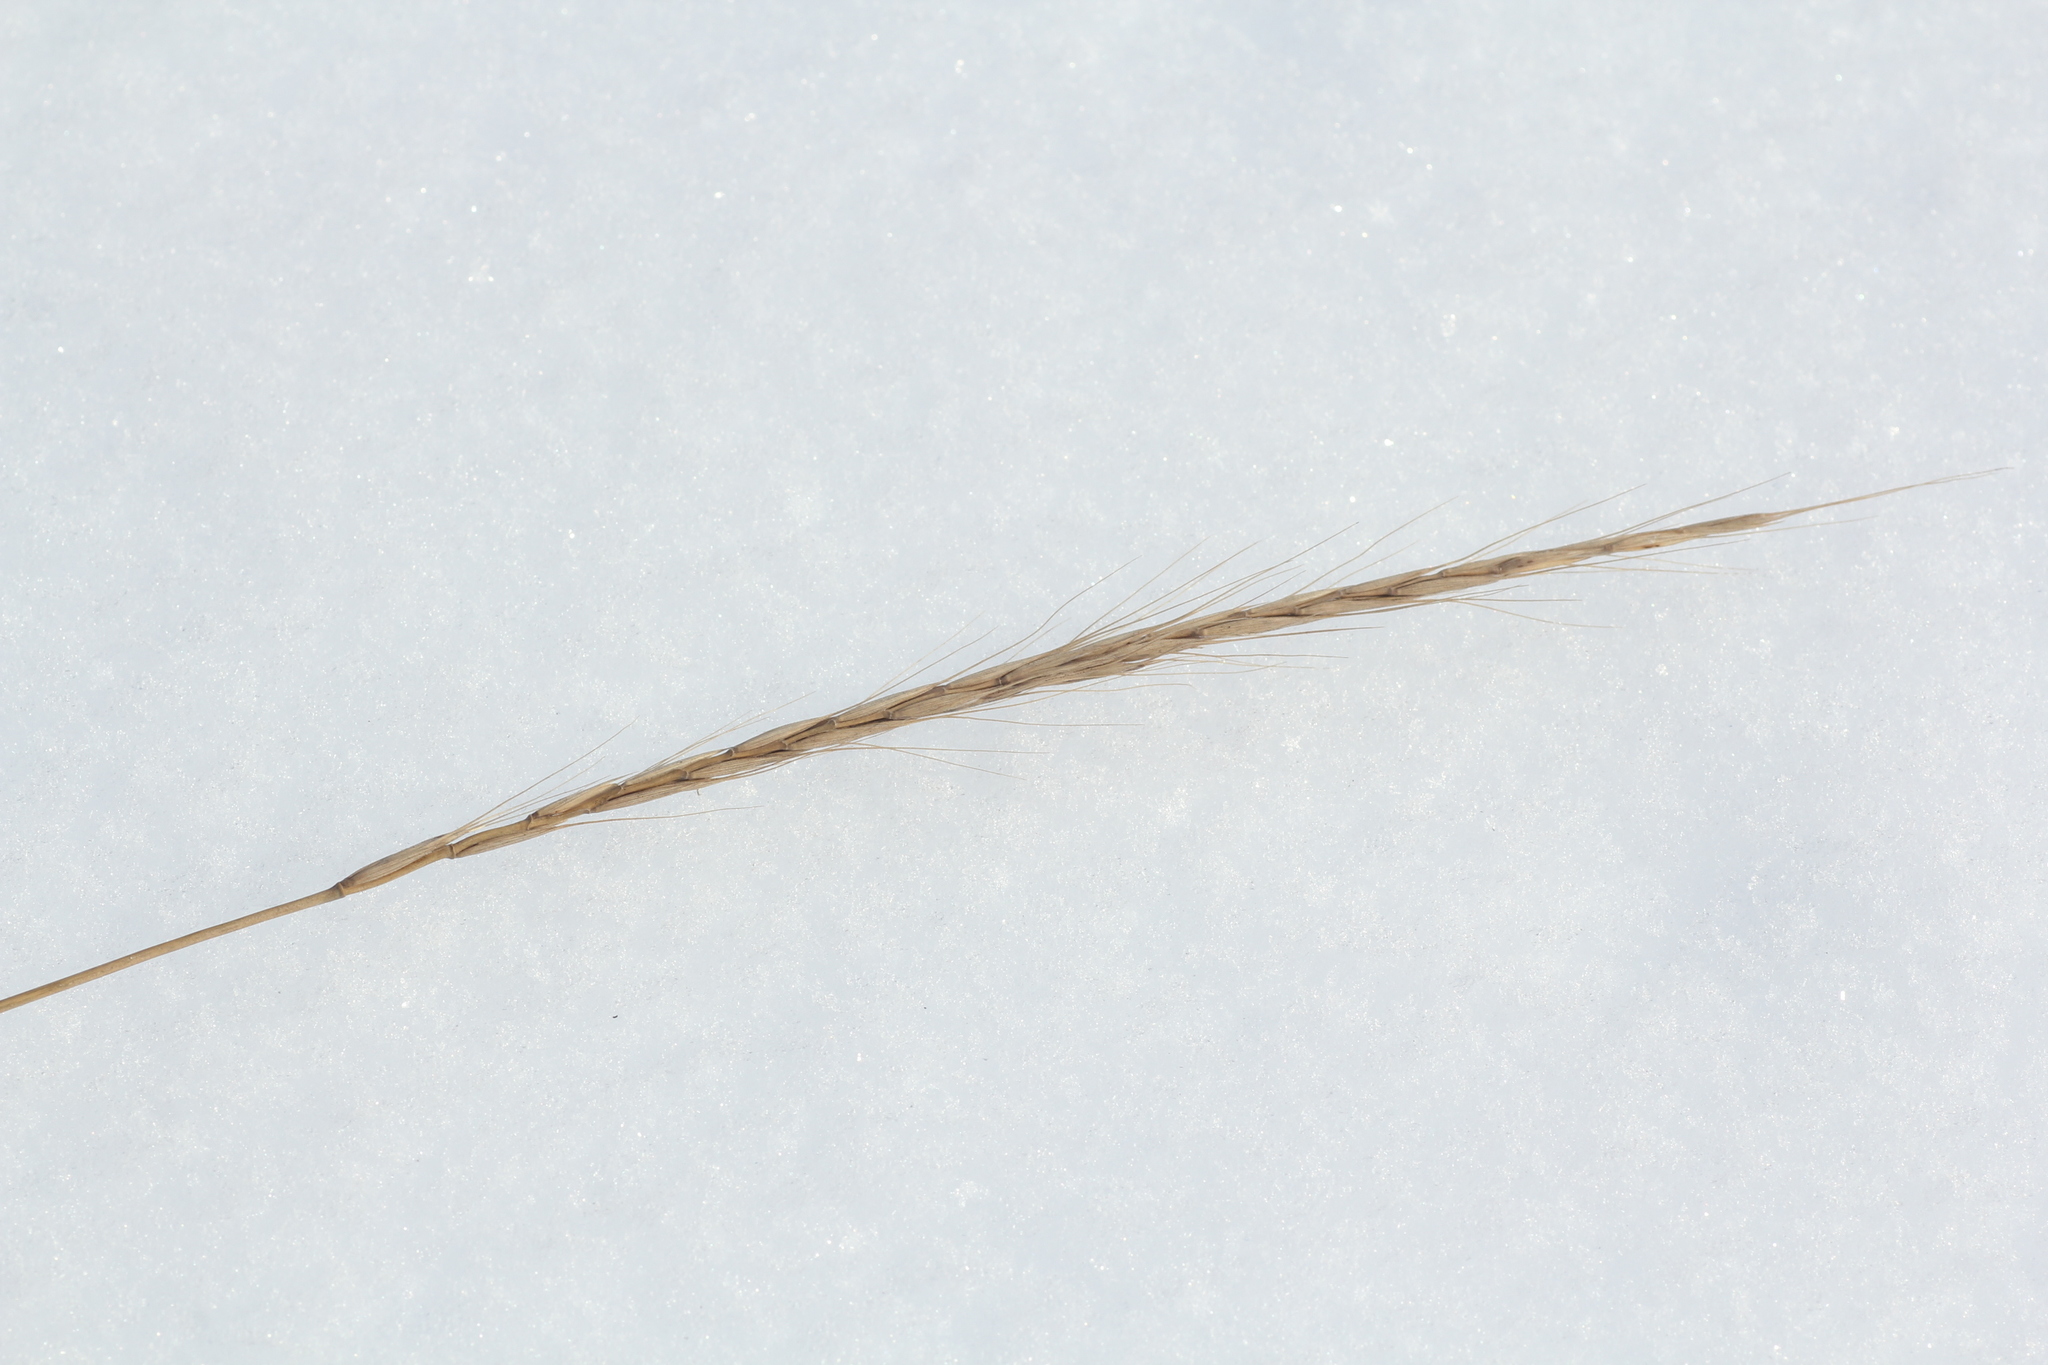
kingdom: Plantae
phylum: Tracheophyta
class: Liliopsida
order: Poales
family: Poaceae
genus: Elymus
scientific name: Elymus gmelinii
